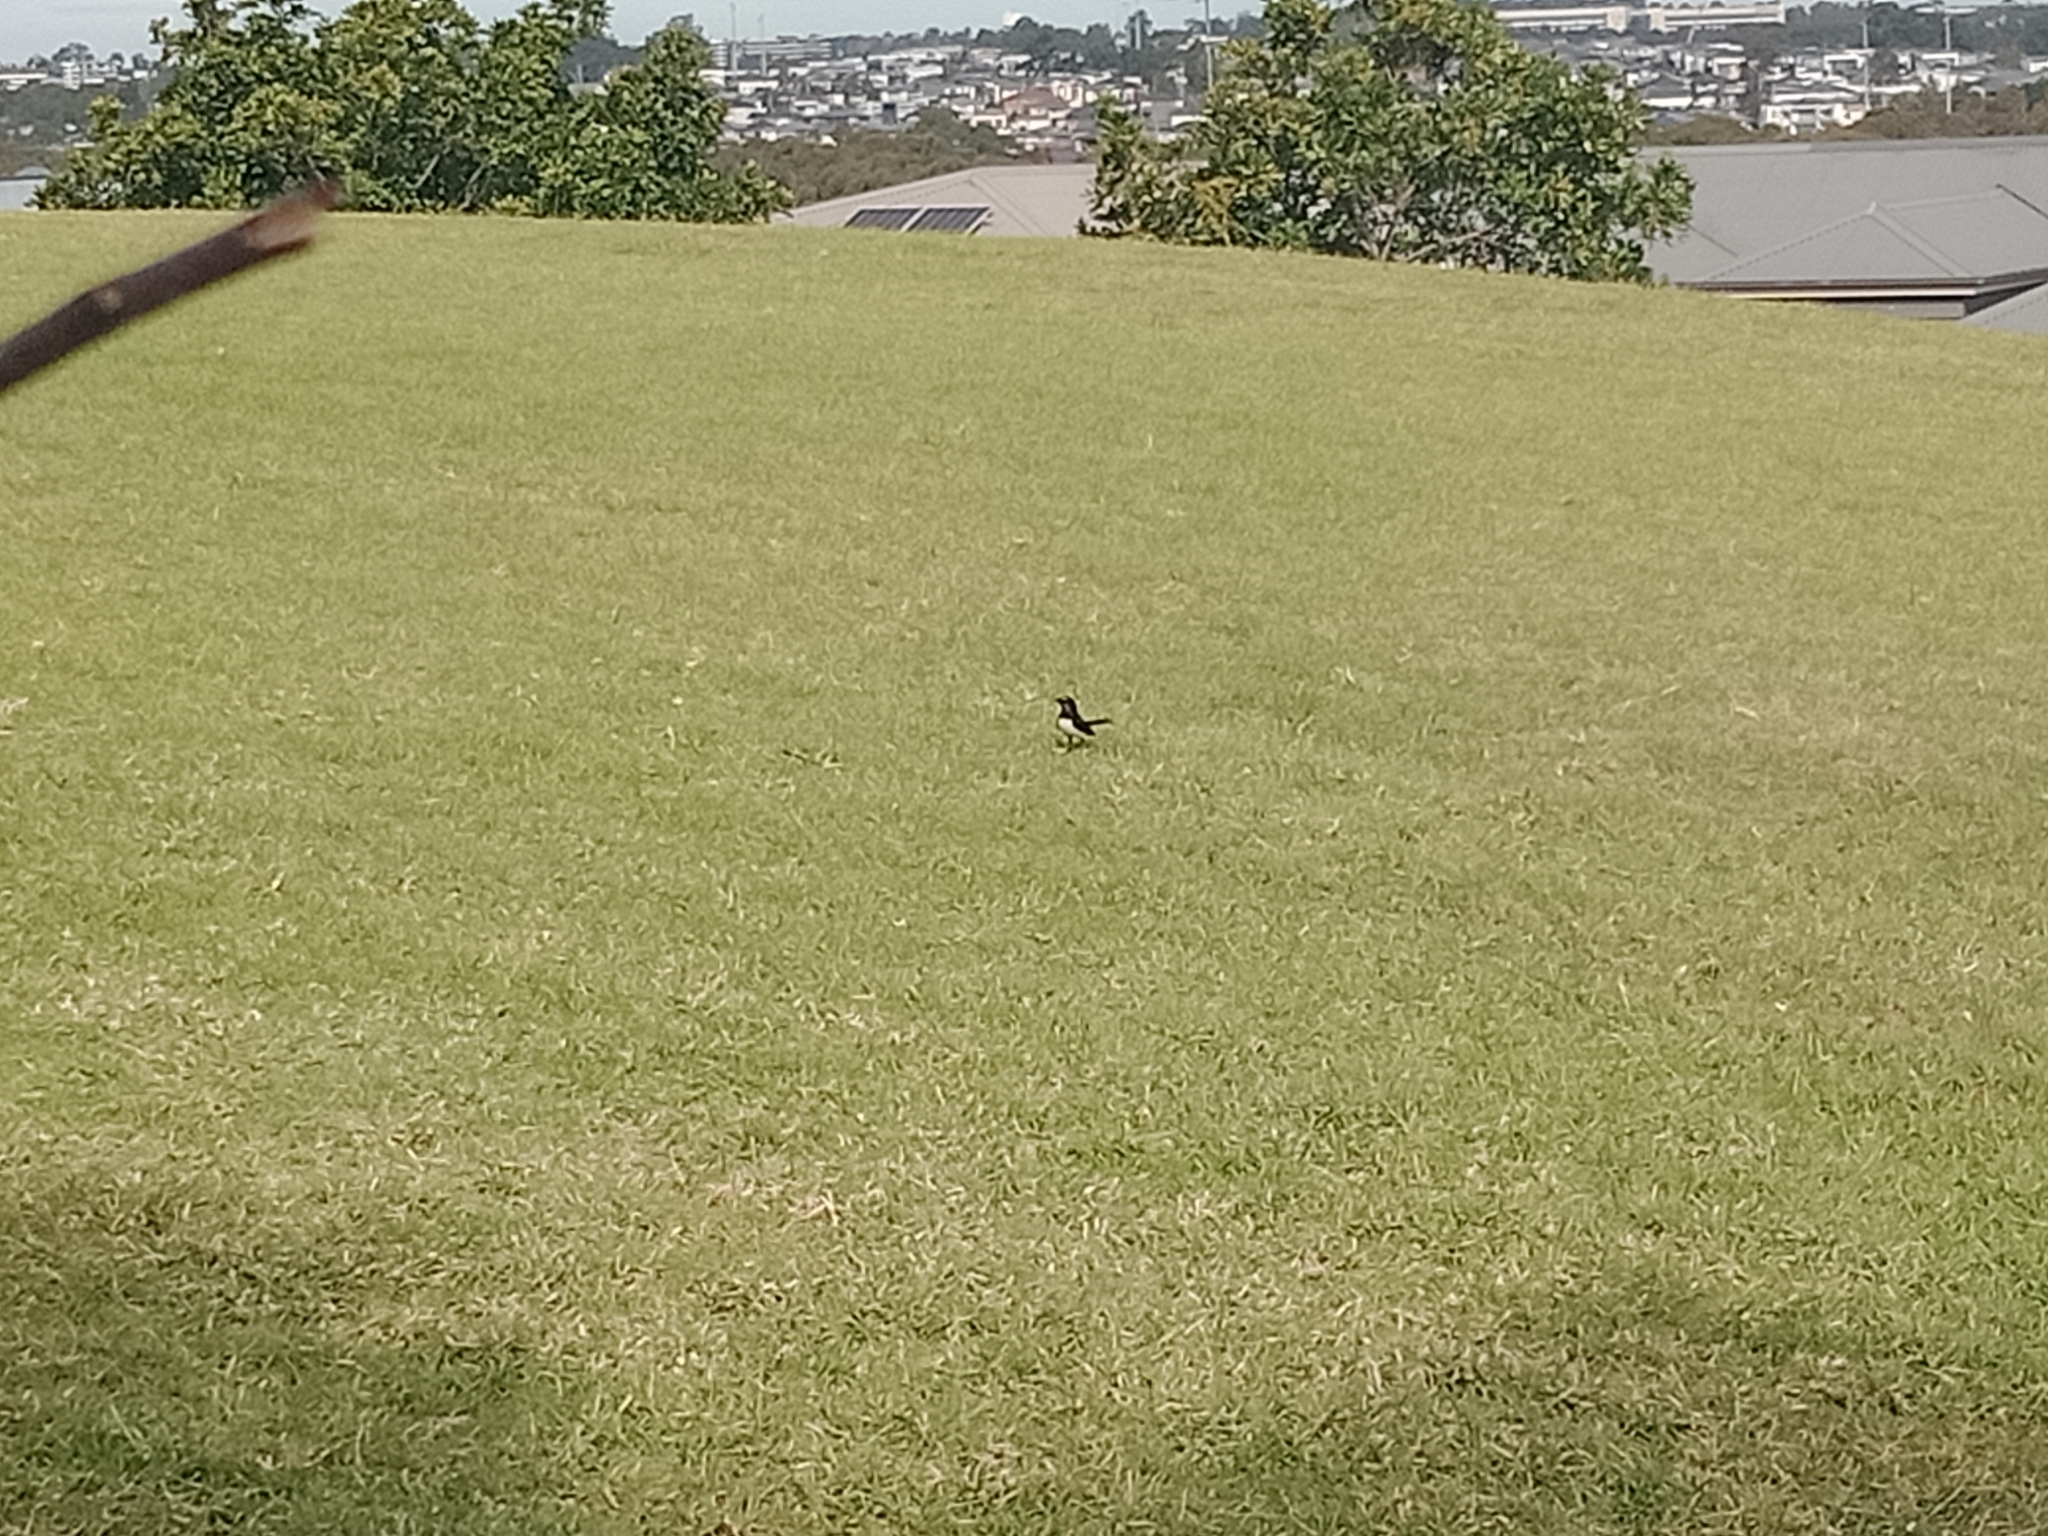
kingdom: Animalia
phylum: Chordata
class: Aves
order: Passeriformes
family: Rhipiduridae
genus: Rhipidura
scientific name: Rhipidura leucophrys
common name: Willie wagtail
